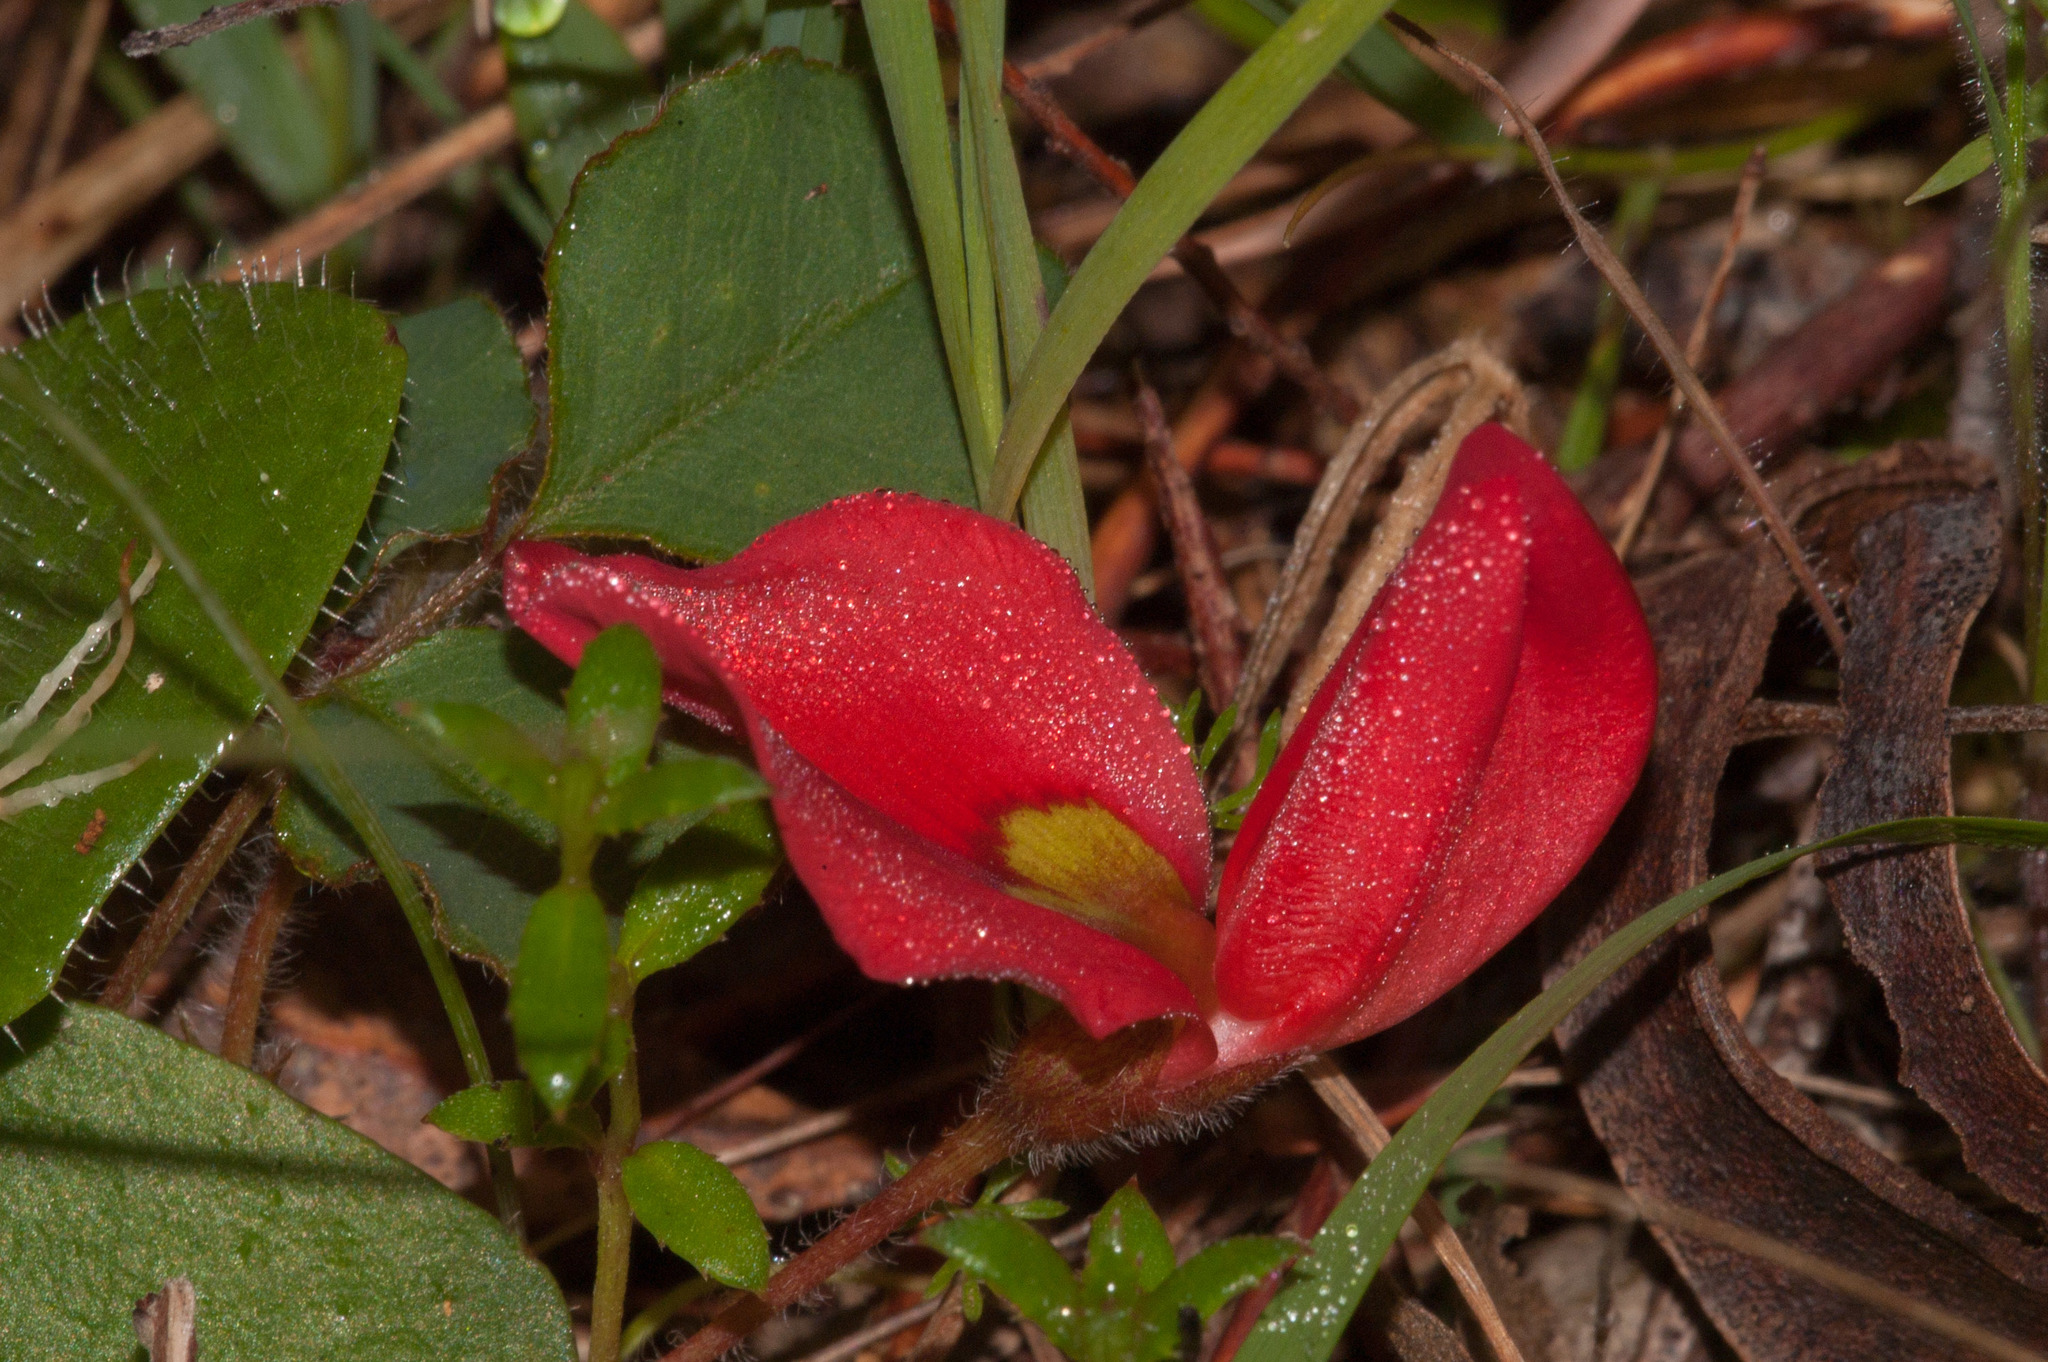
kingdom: Plantae
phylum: Tracheophyta
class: Magnoliopsida
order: Fabales
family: Fabaceae
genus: Kennedia
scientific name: Kennedia prostrata
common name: Running-postman
